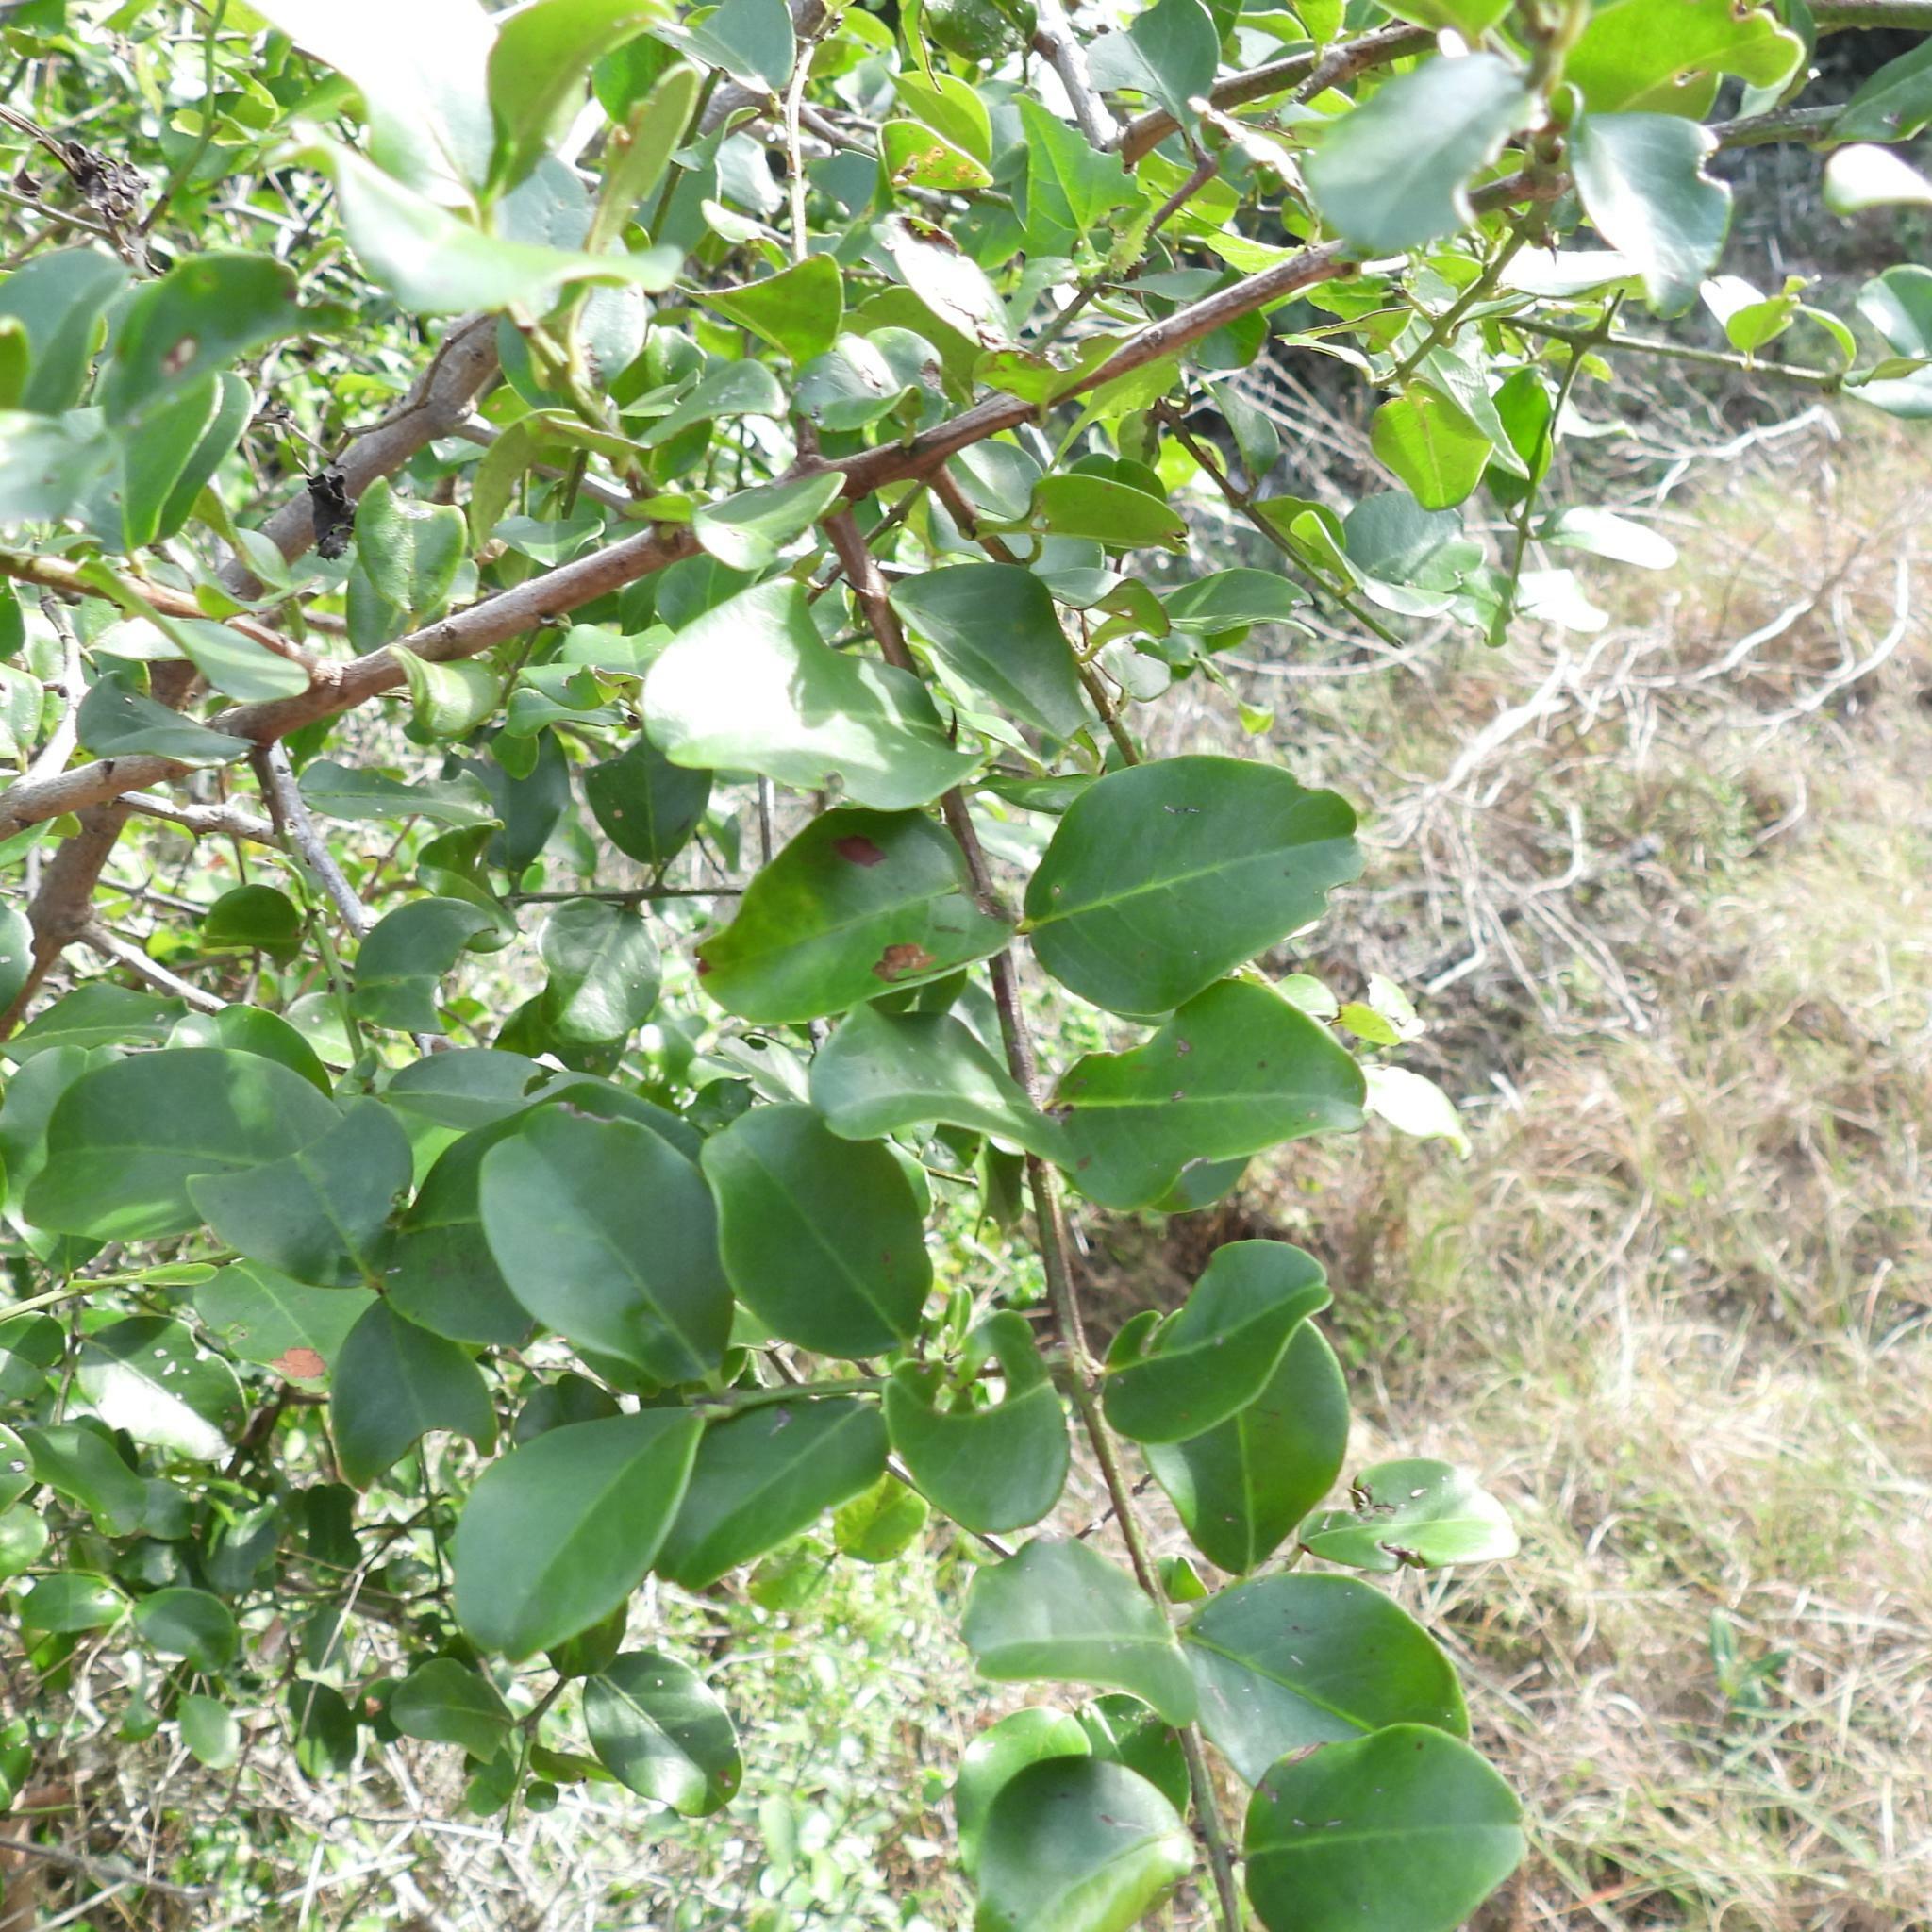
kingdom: Plantae
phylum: Tracheophyta
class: Magnoliopsida
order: Rosales
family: Rhamnaceae
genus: Scutia
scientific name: Scutia myrtina
